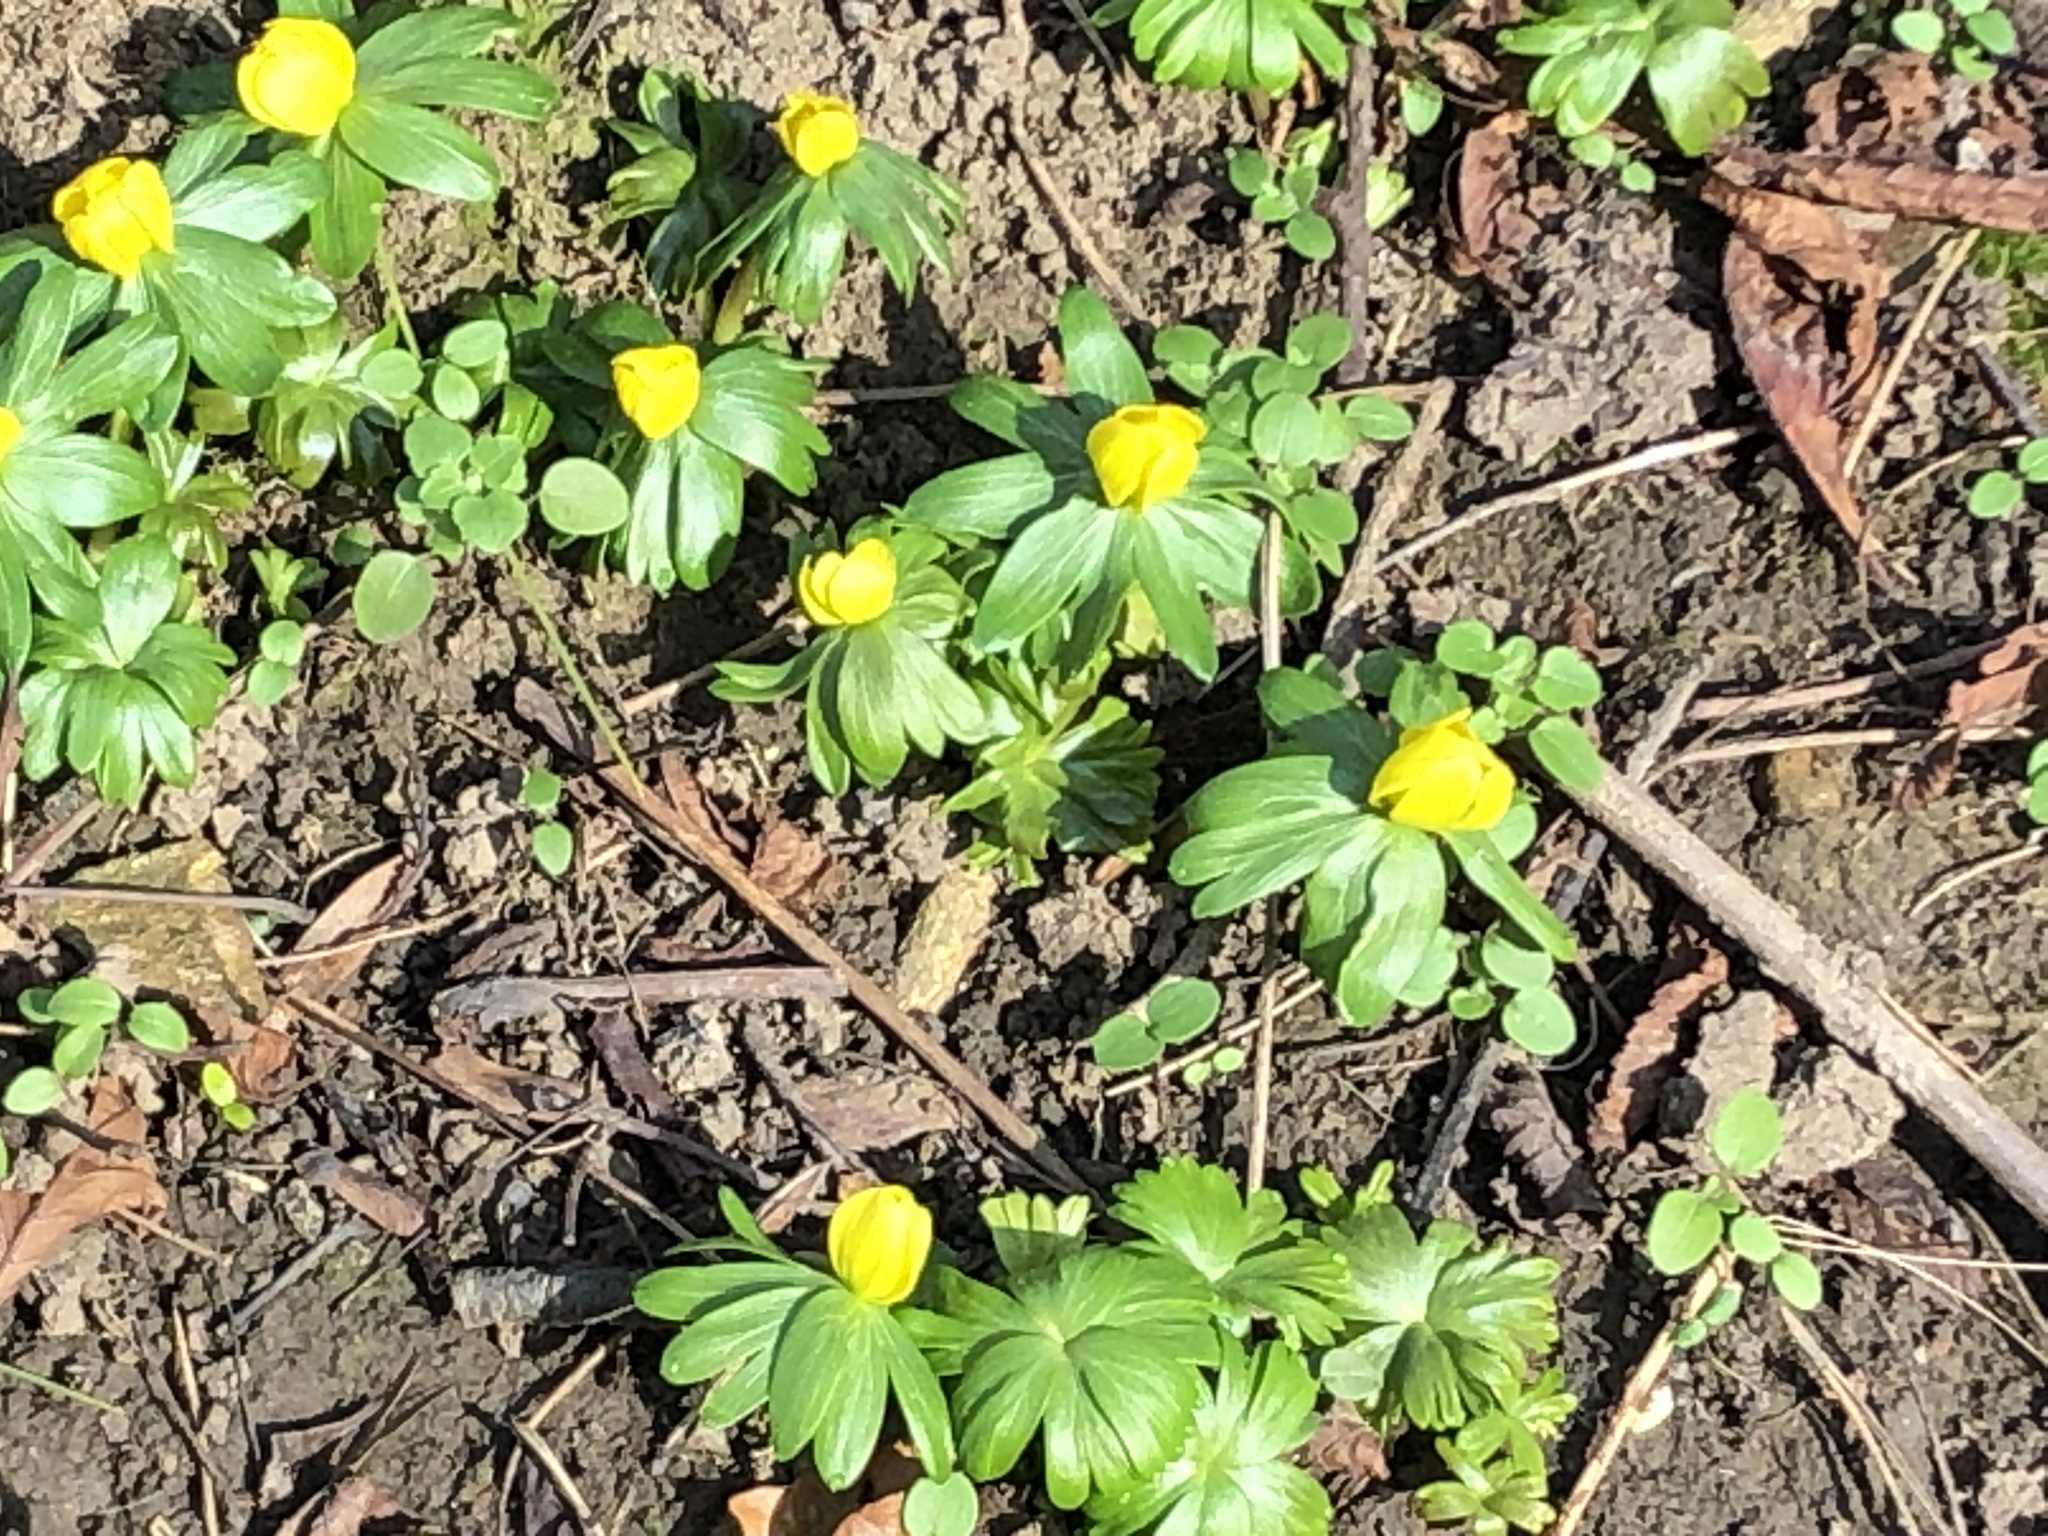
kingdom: Plantae
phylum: Tracheophyta
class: Magnoliopsida
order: Ranunculales
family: Ranunculaceae
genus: Eranthis
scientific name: Eranthis hyemalis
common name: Winter aconite
